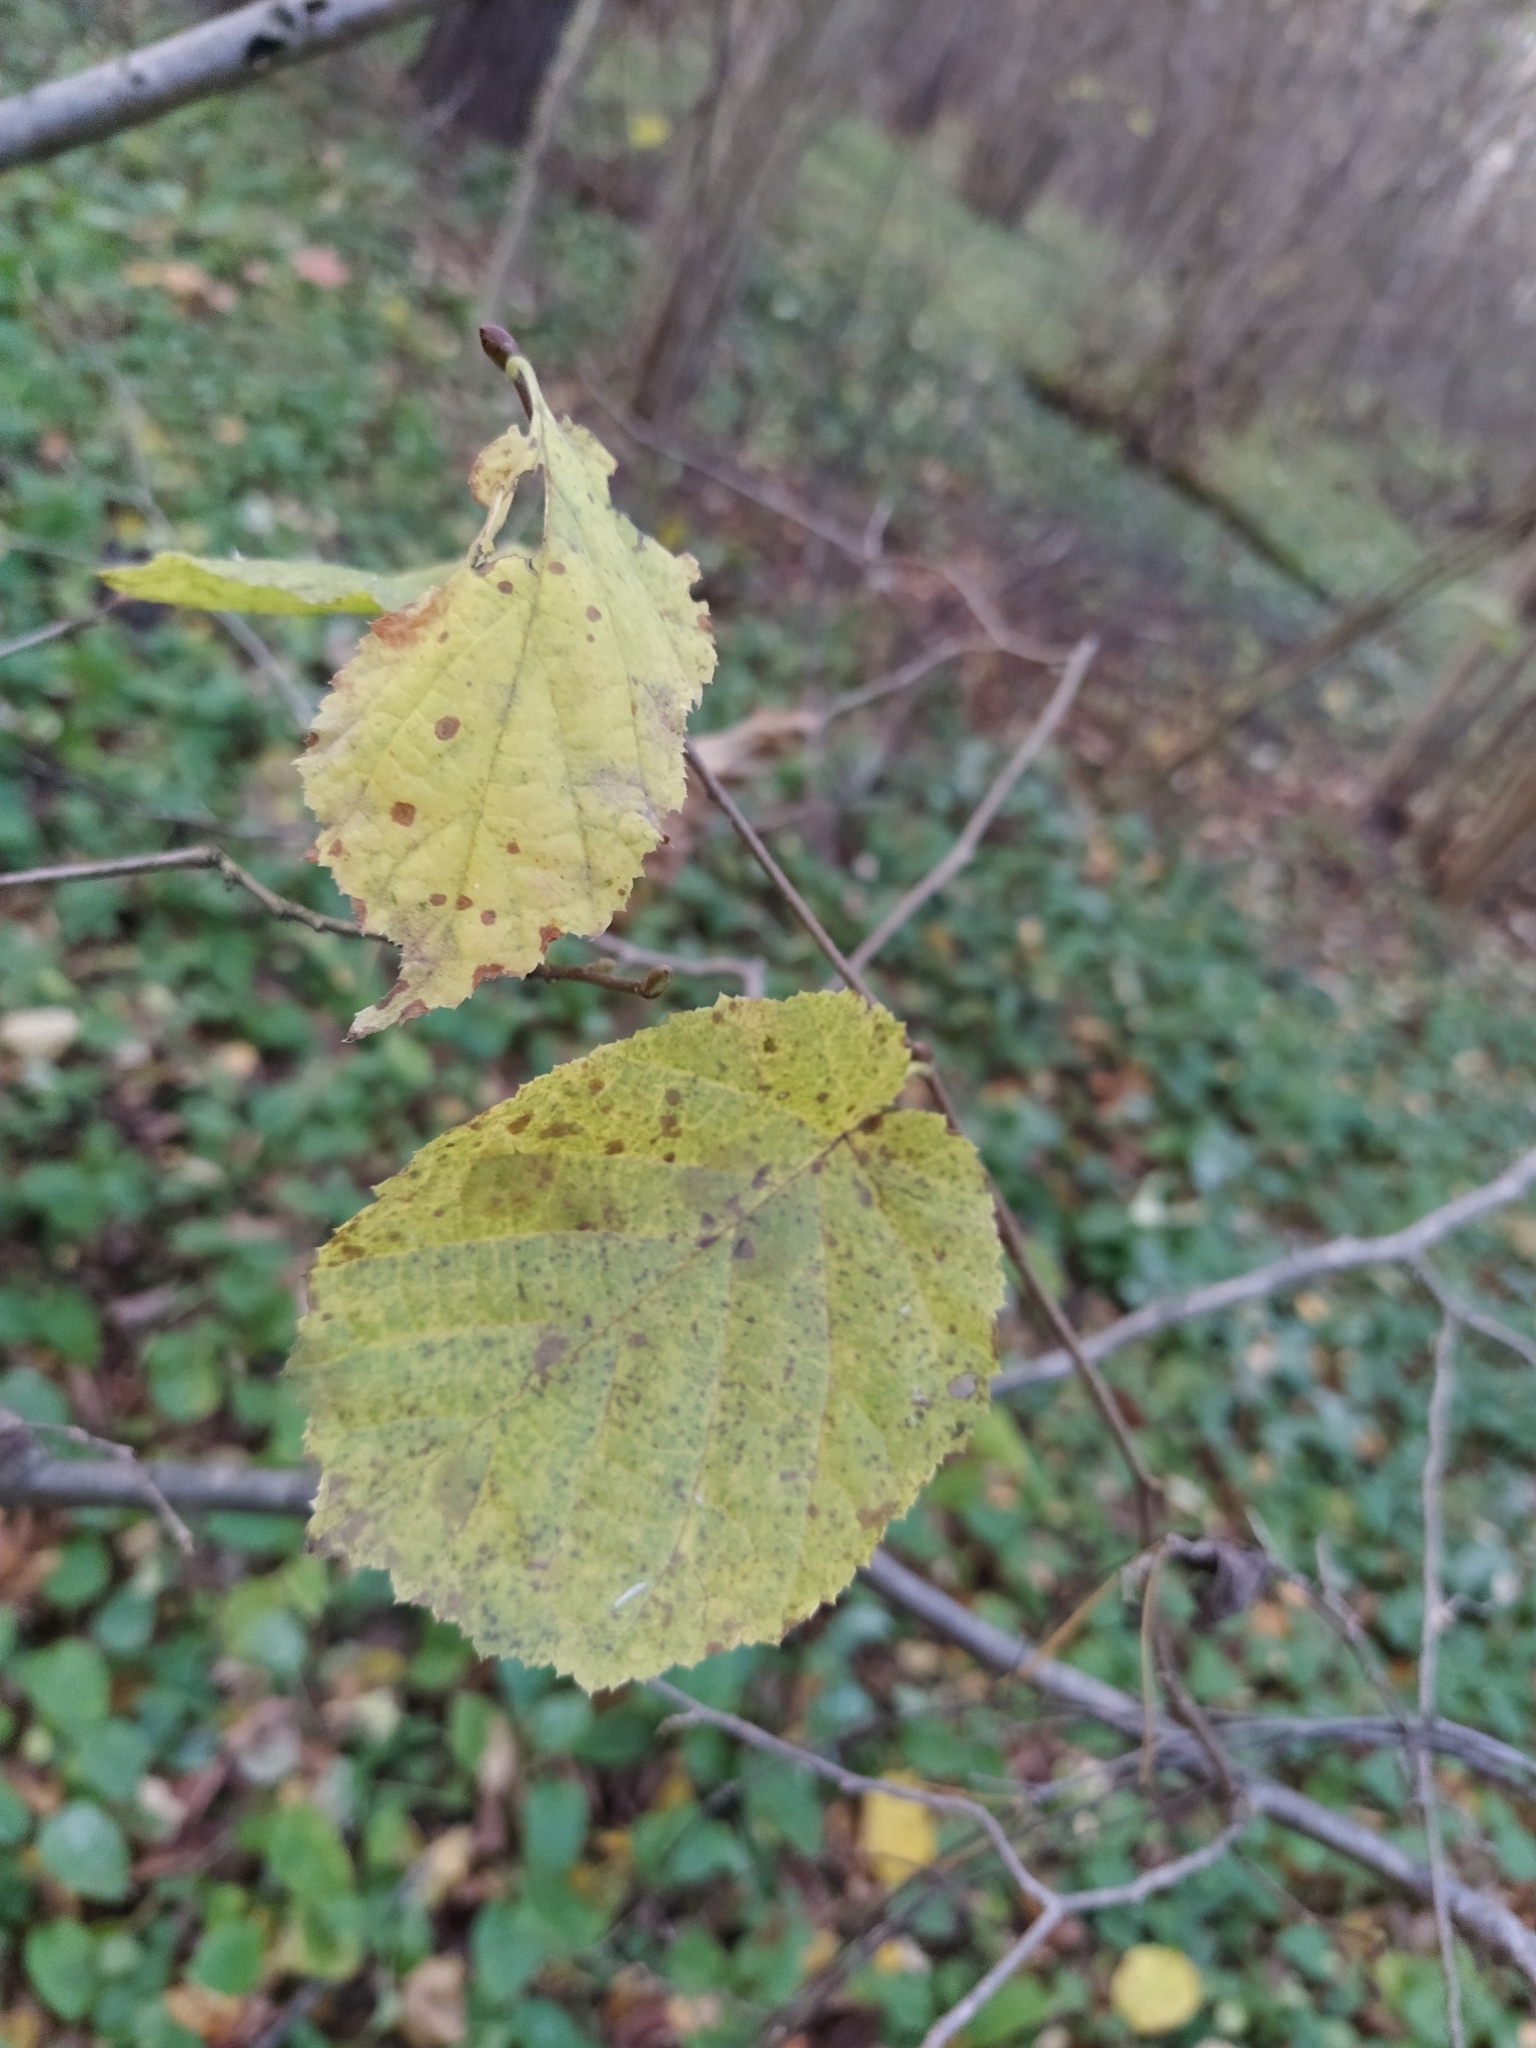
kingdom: Plantae
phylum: Tracheophyta
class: Magnoliopsida
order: Fagales
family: Betulaceae
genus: Corylus
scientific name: Corylus avellana
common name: European hazel
